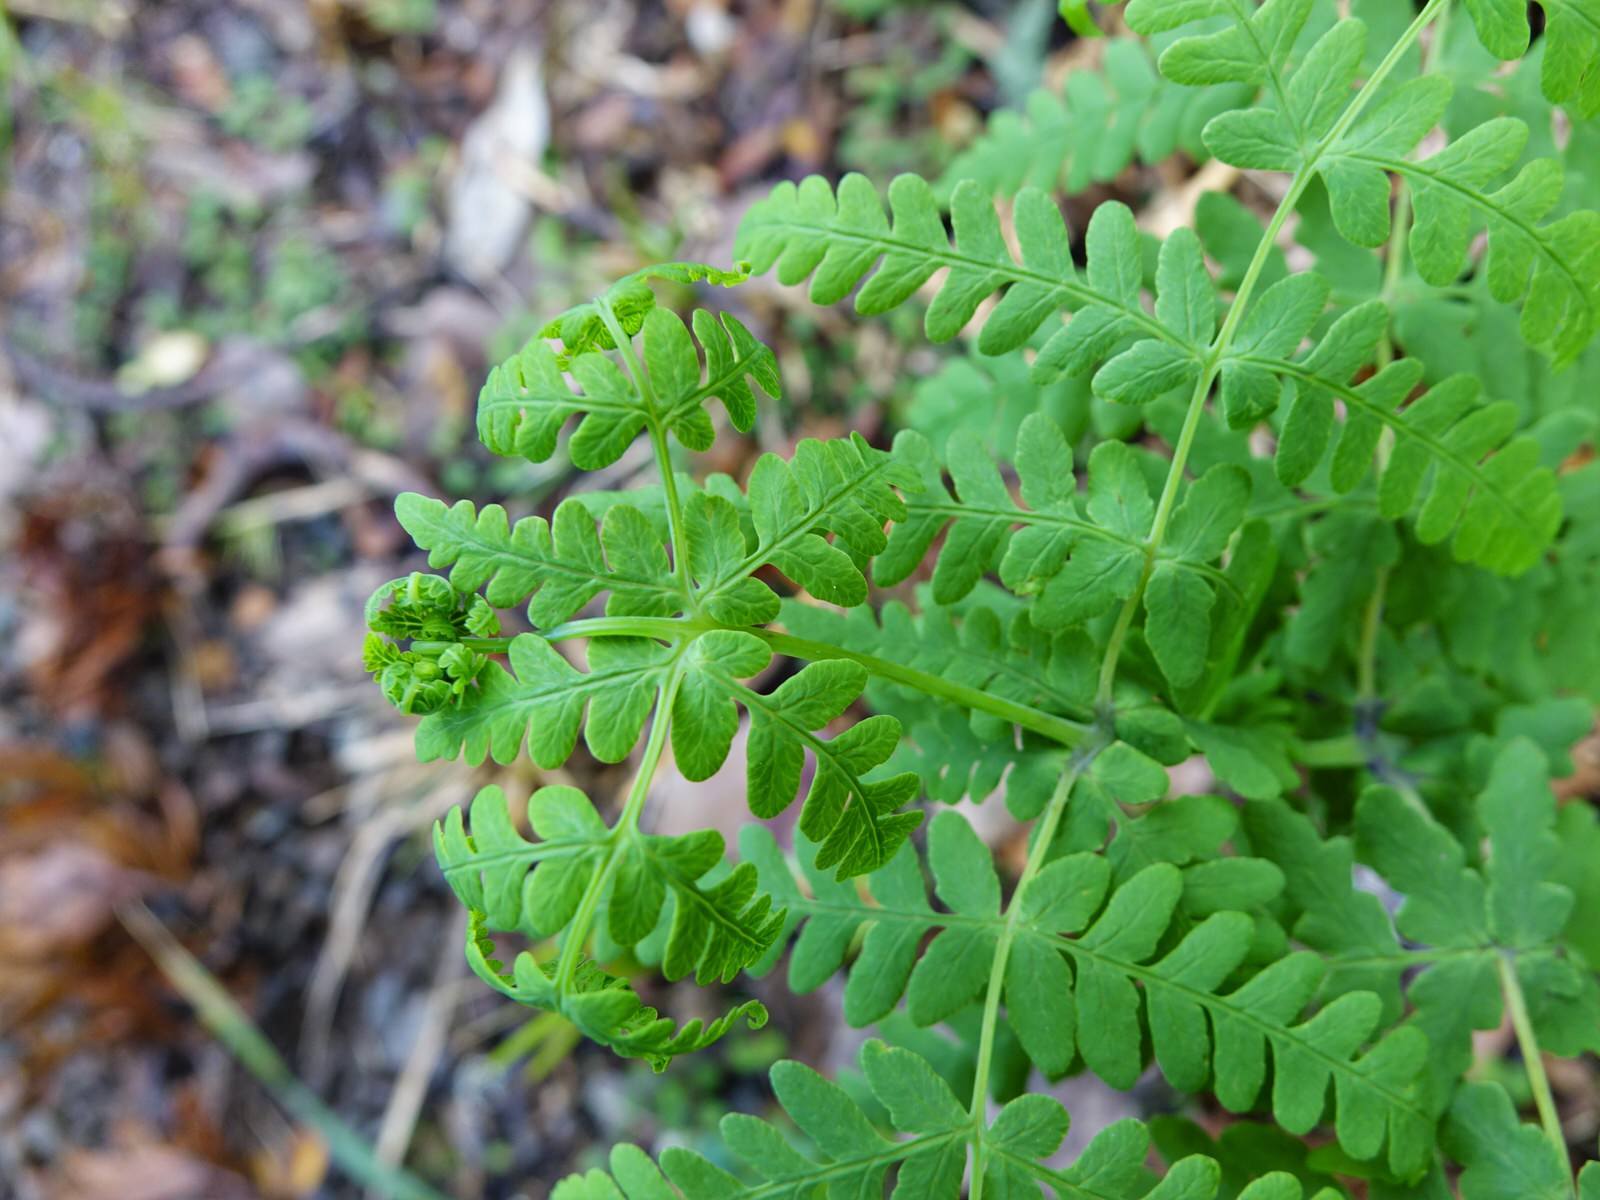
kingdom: Plantae
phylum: Tracheophyta
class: Polypodiopsida
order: Polypodiales
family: Dennstaedtiaceae
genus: Histiopteris
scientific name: Histiopteris incisa
